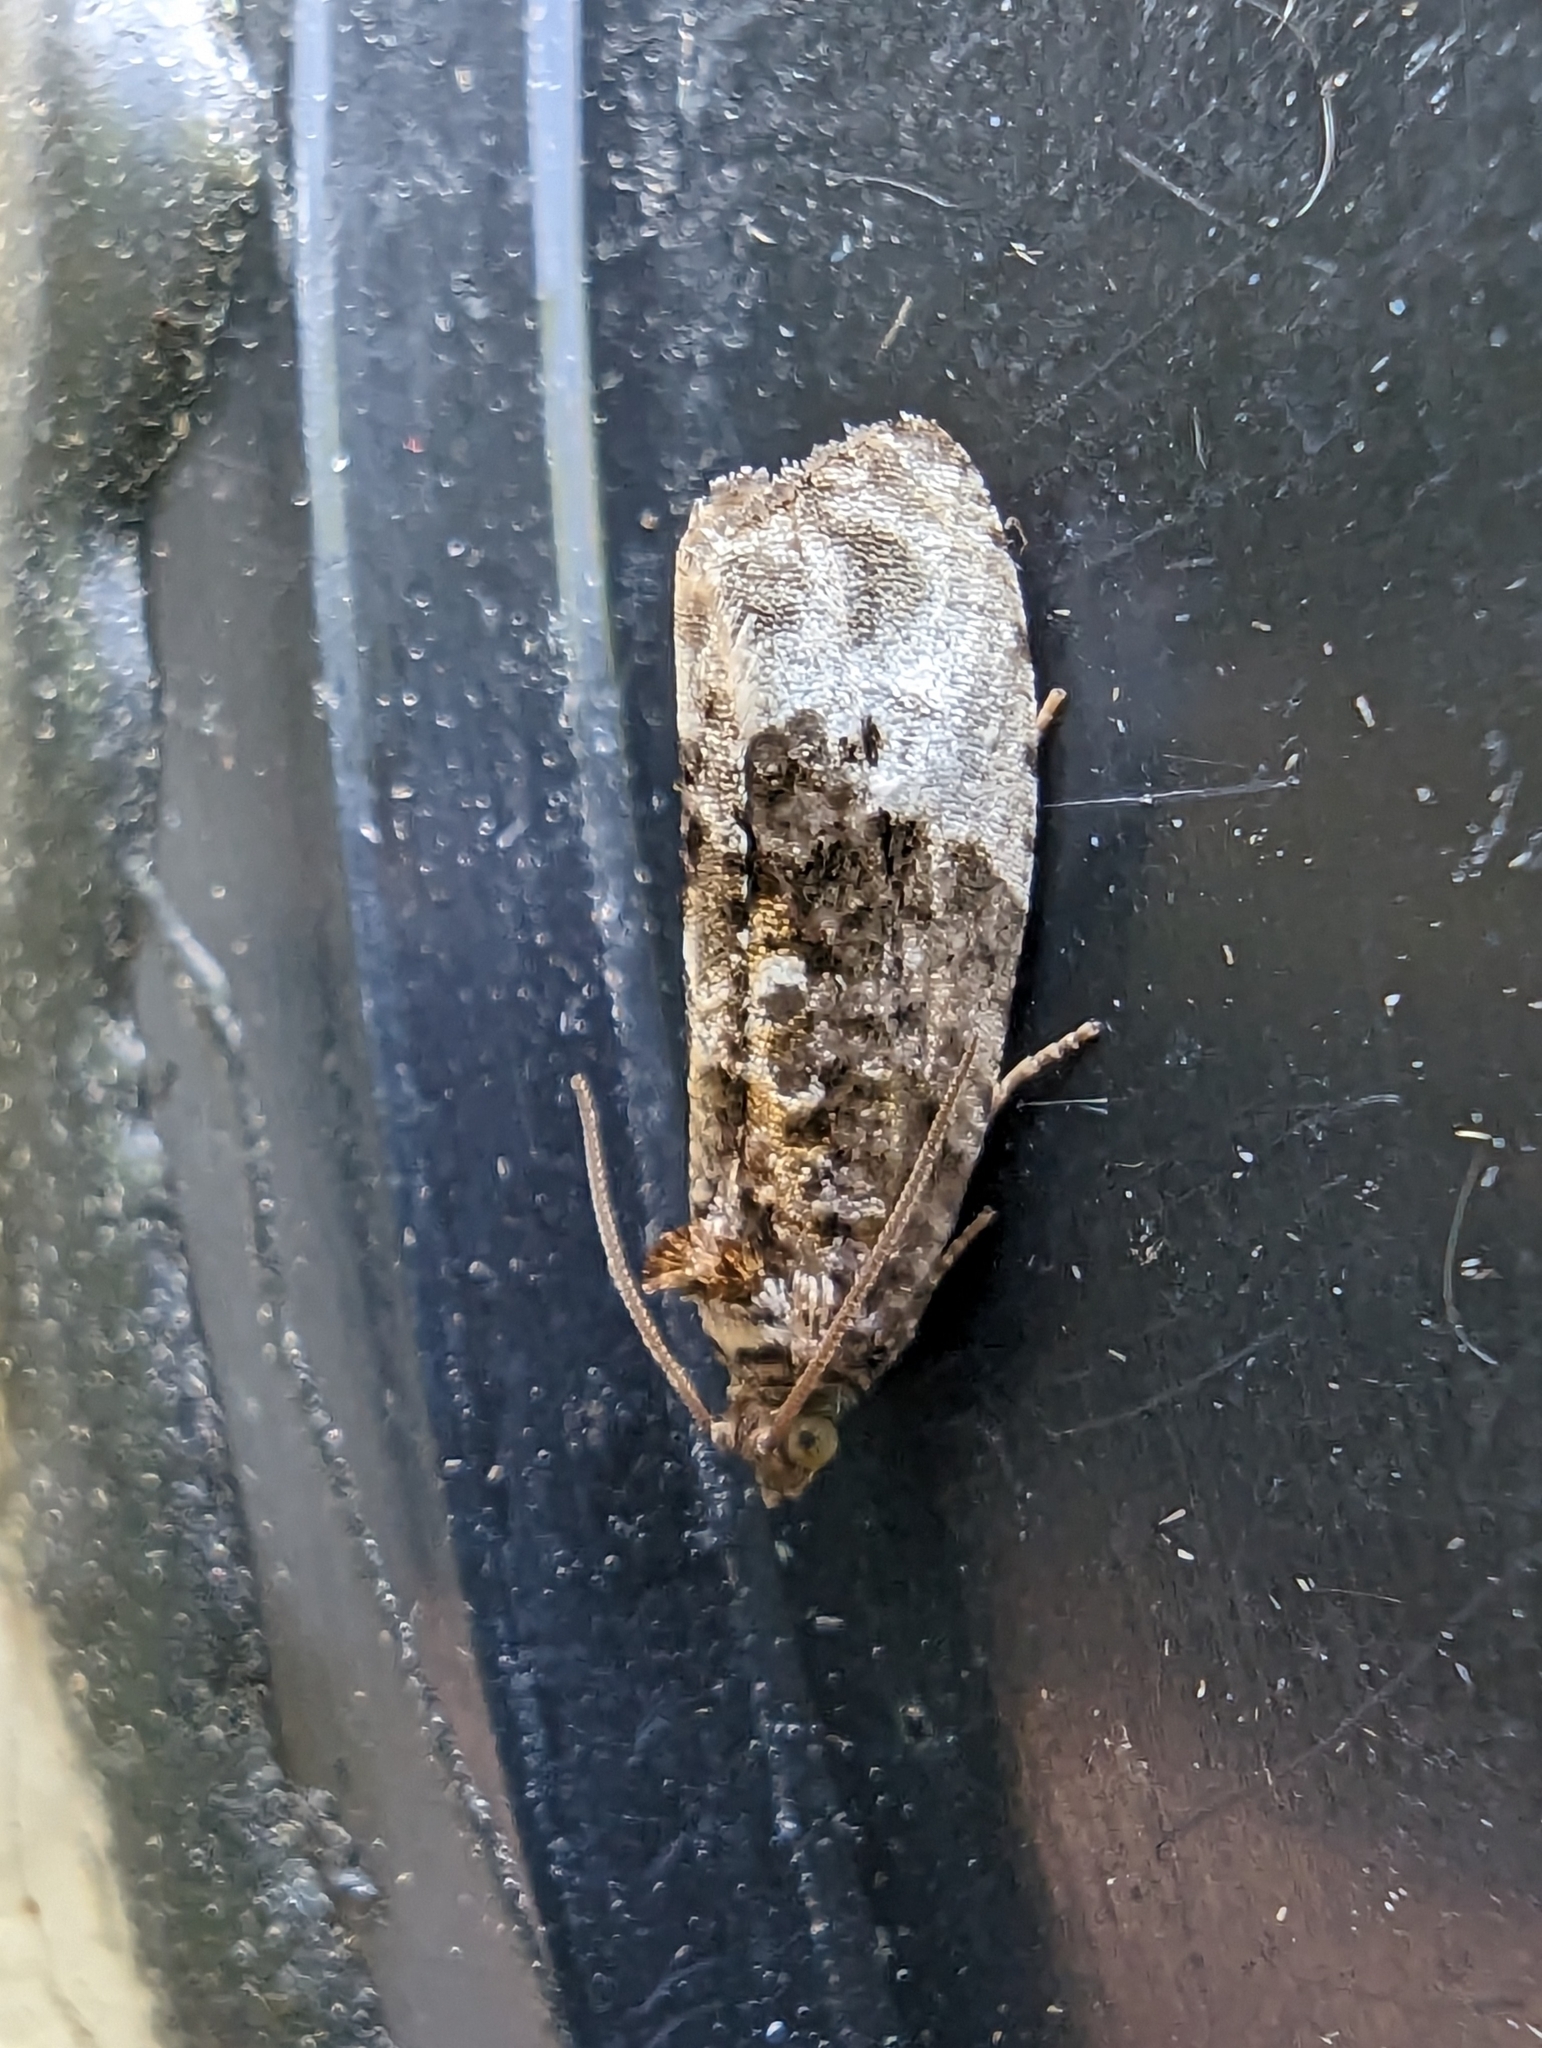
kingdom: Animalia
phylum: Arthropoda
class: Insecta
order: Lepidoptera
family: Tortricidae
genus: Hedya
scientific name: Hedya nubiferana
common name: Marbled orchard tortrix
